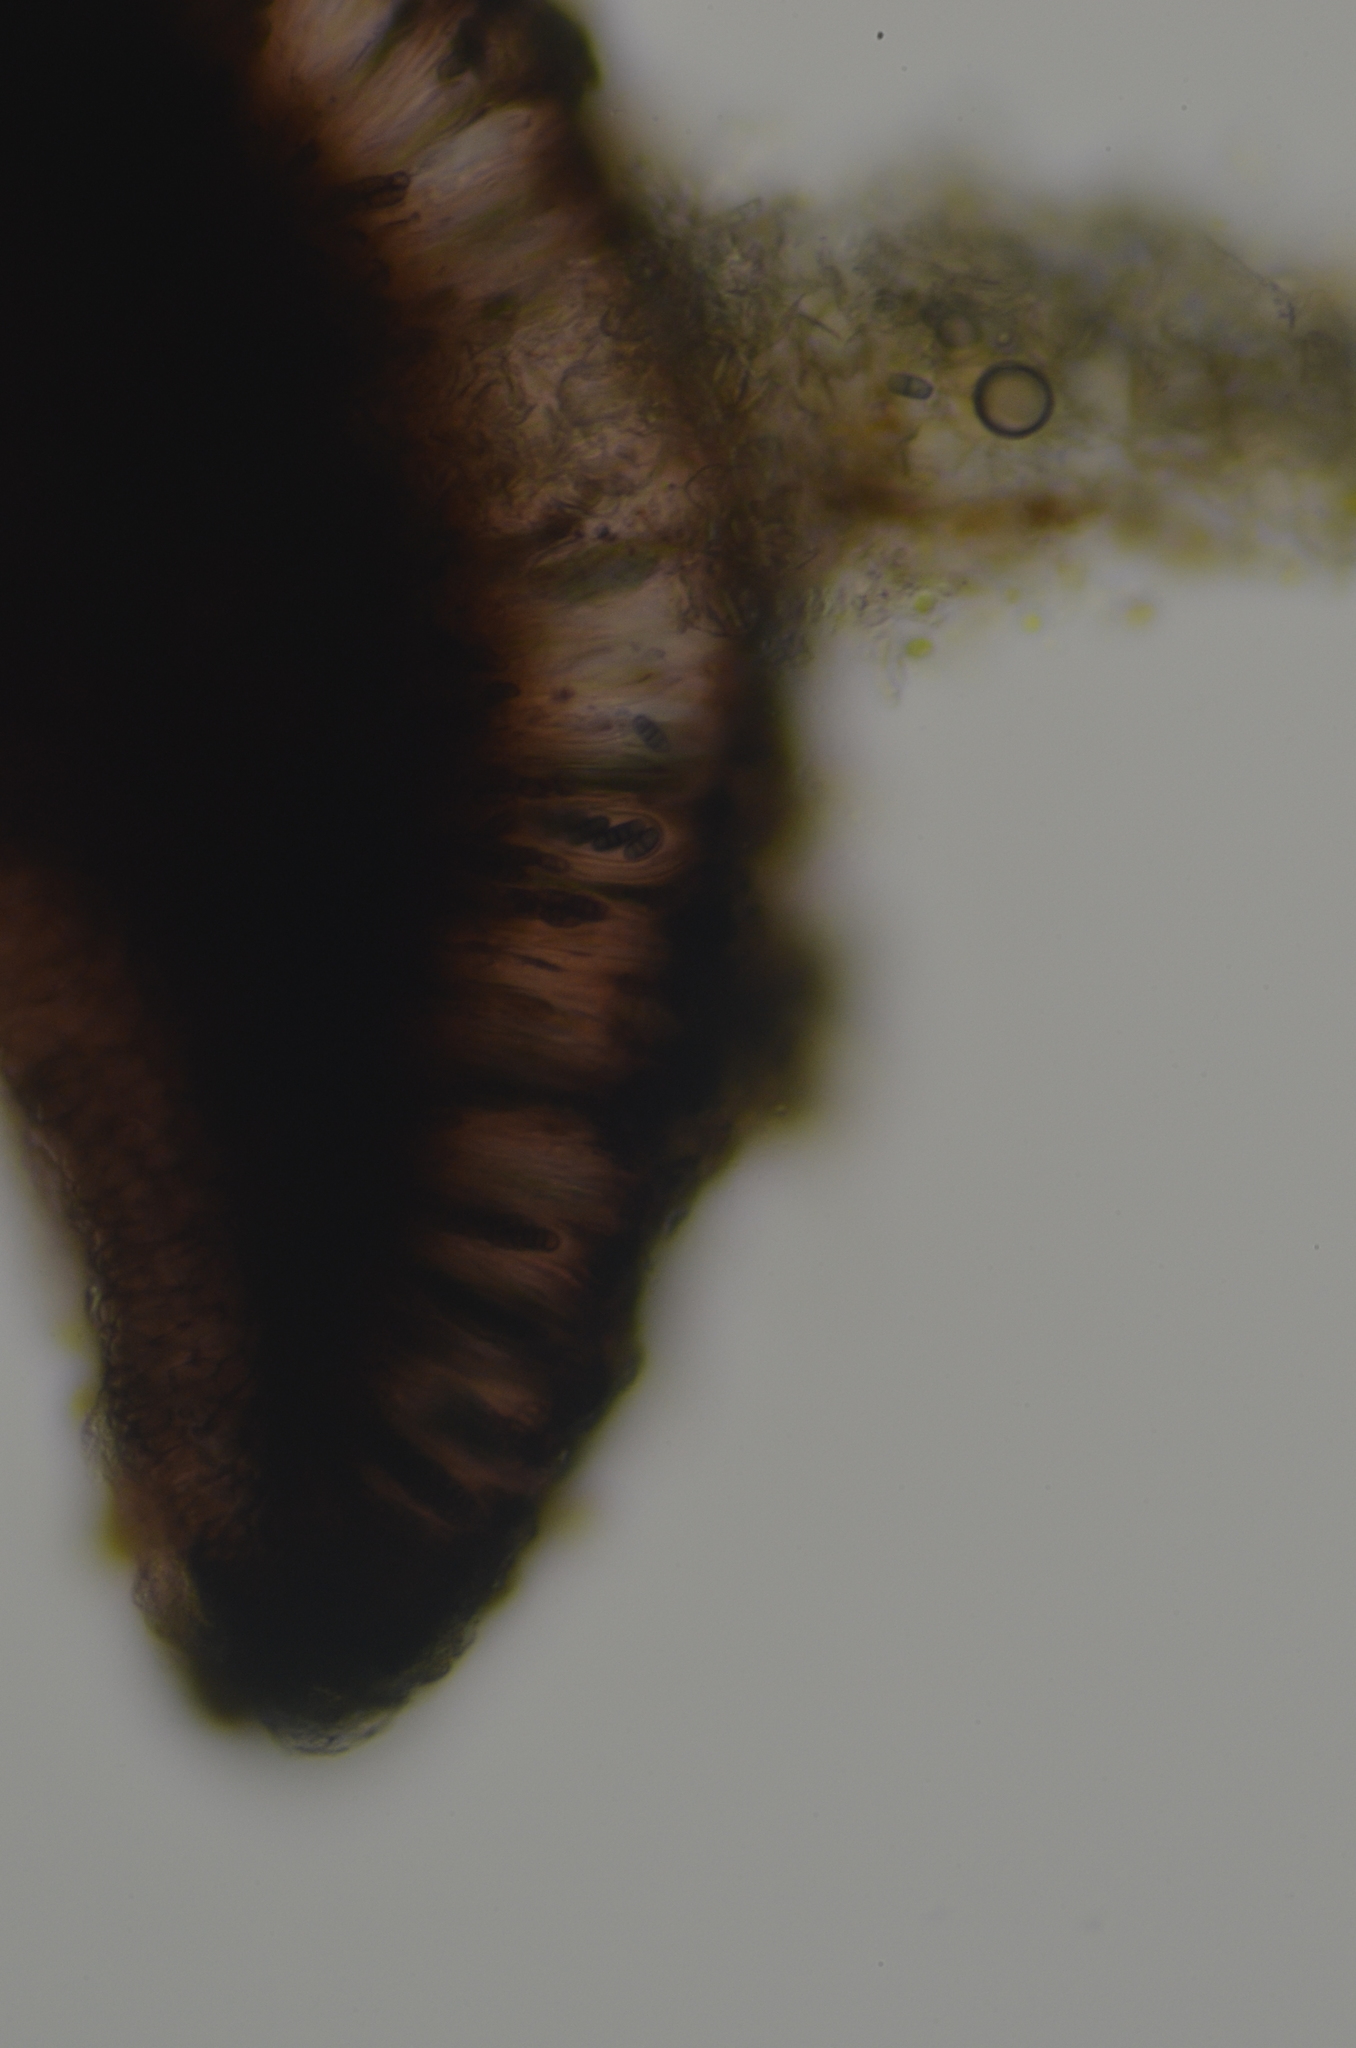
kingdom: Fungi
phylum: Ascomycota
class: Eurotiomycetes
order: Sclerococcales
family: Sclerococcaceae
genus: Sclerococcum
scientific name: Sclerococcum parasiticum
